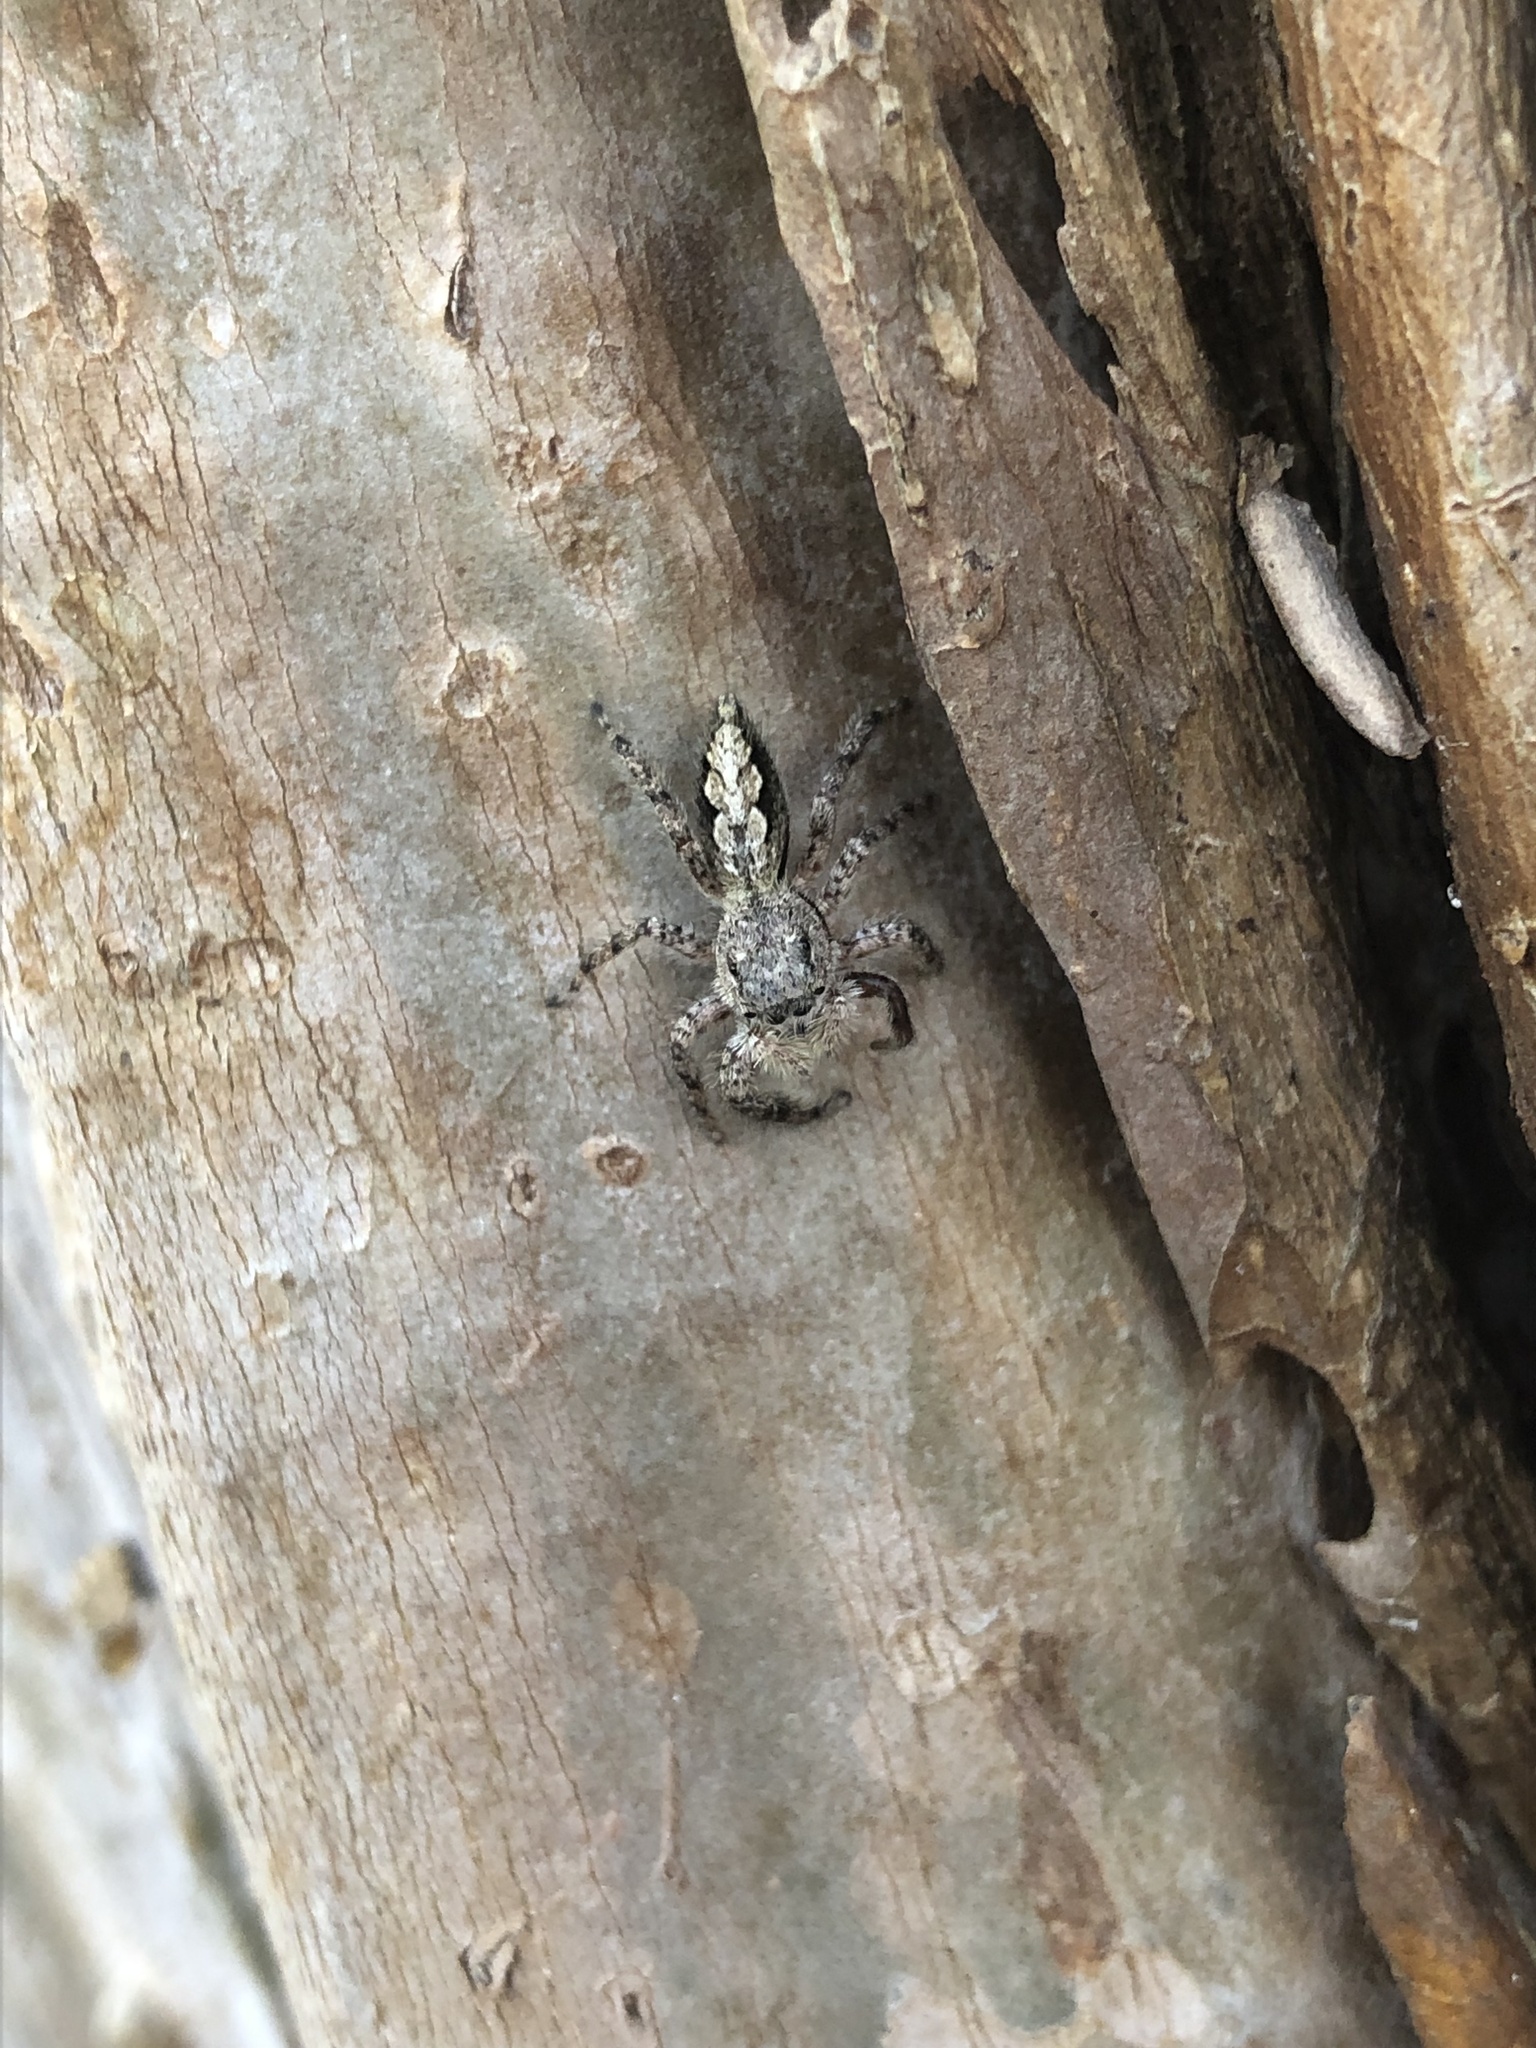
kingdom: Animalia
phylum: Arthropoda
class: Arachnida
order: Araneae
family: Salticidae
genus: Platycryptus
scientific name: Platycryptus undatus
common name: Tan jumping spider
